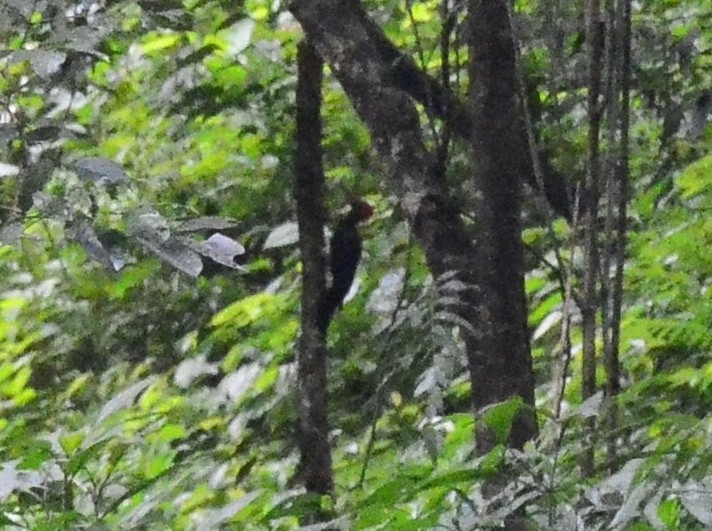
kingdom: Animalia
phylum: Chordata
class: Aves
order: Piciformes
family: Picidae
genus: Dryocopus
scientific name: Dryocopus javensis
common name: White-bellied woodpecker
